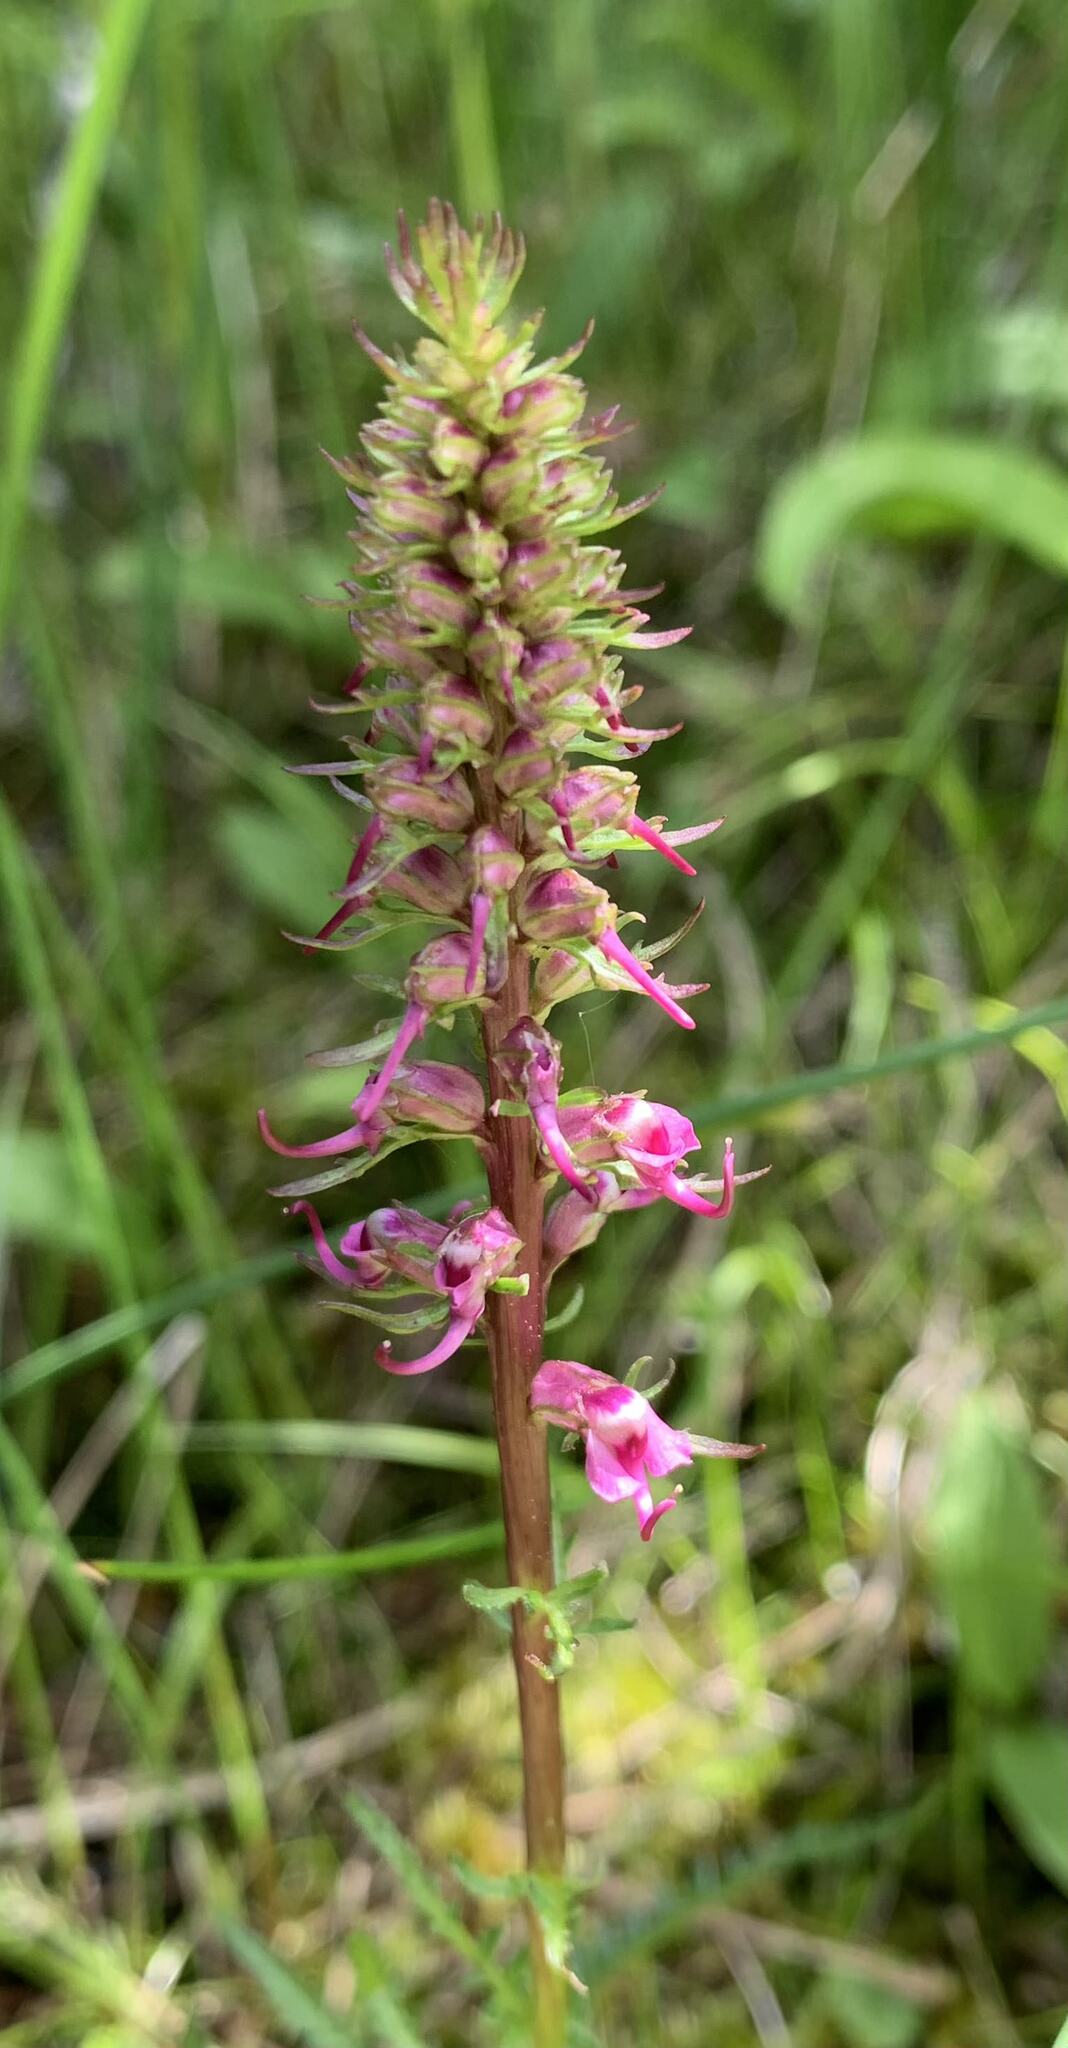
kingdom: Plantae
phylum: Tracheophyta
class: Magnoliopsida
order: Lamiales
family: Orobanchaceae
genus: Pedicularis
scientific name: Pedicularis groenlandica
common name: Elephant's-head
